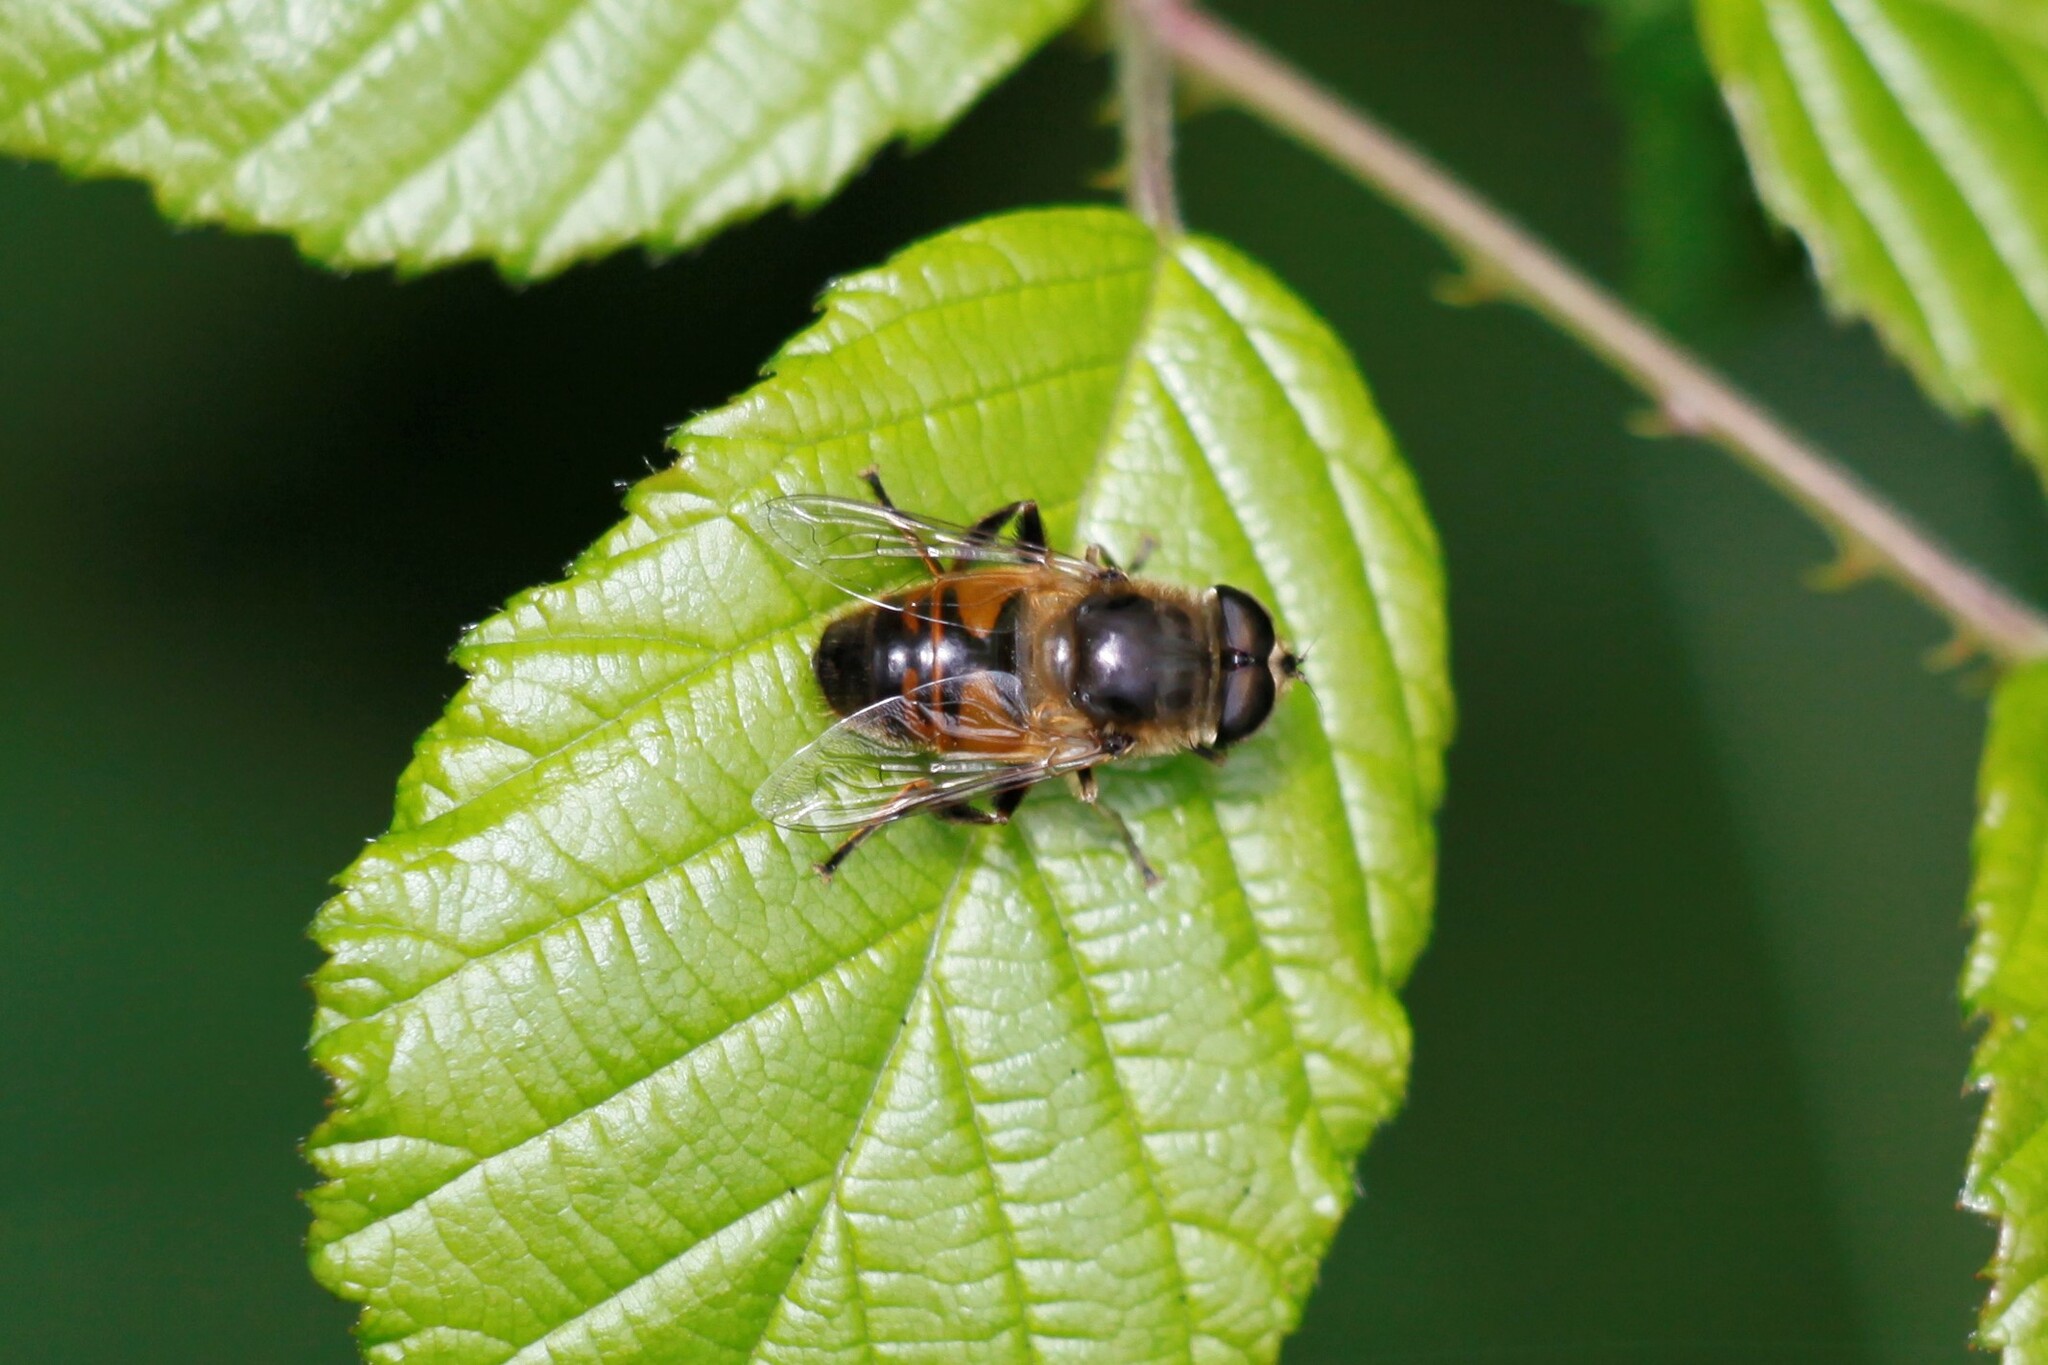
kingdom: Animalia
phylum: Arthropoda
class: Insecta
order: Diptera
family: Syrphidae
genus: Eristalis
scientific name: Eristalis tenax
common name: Drone fly
